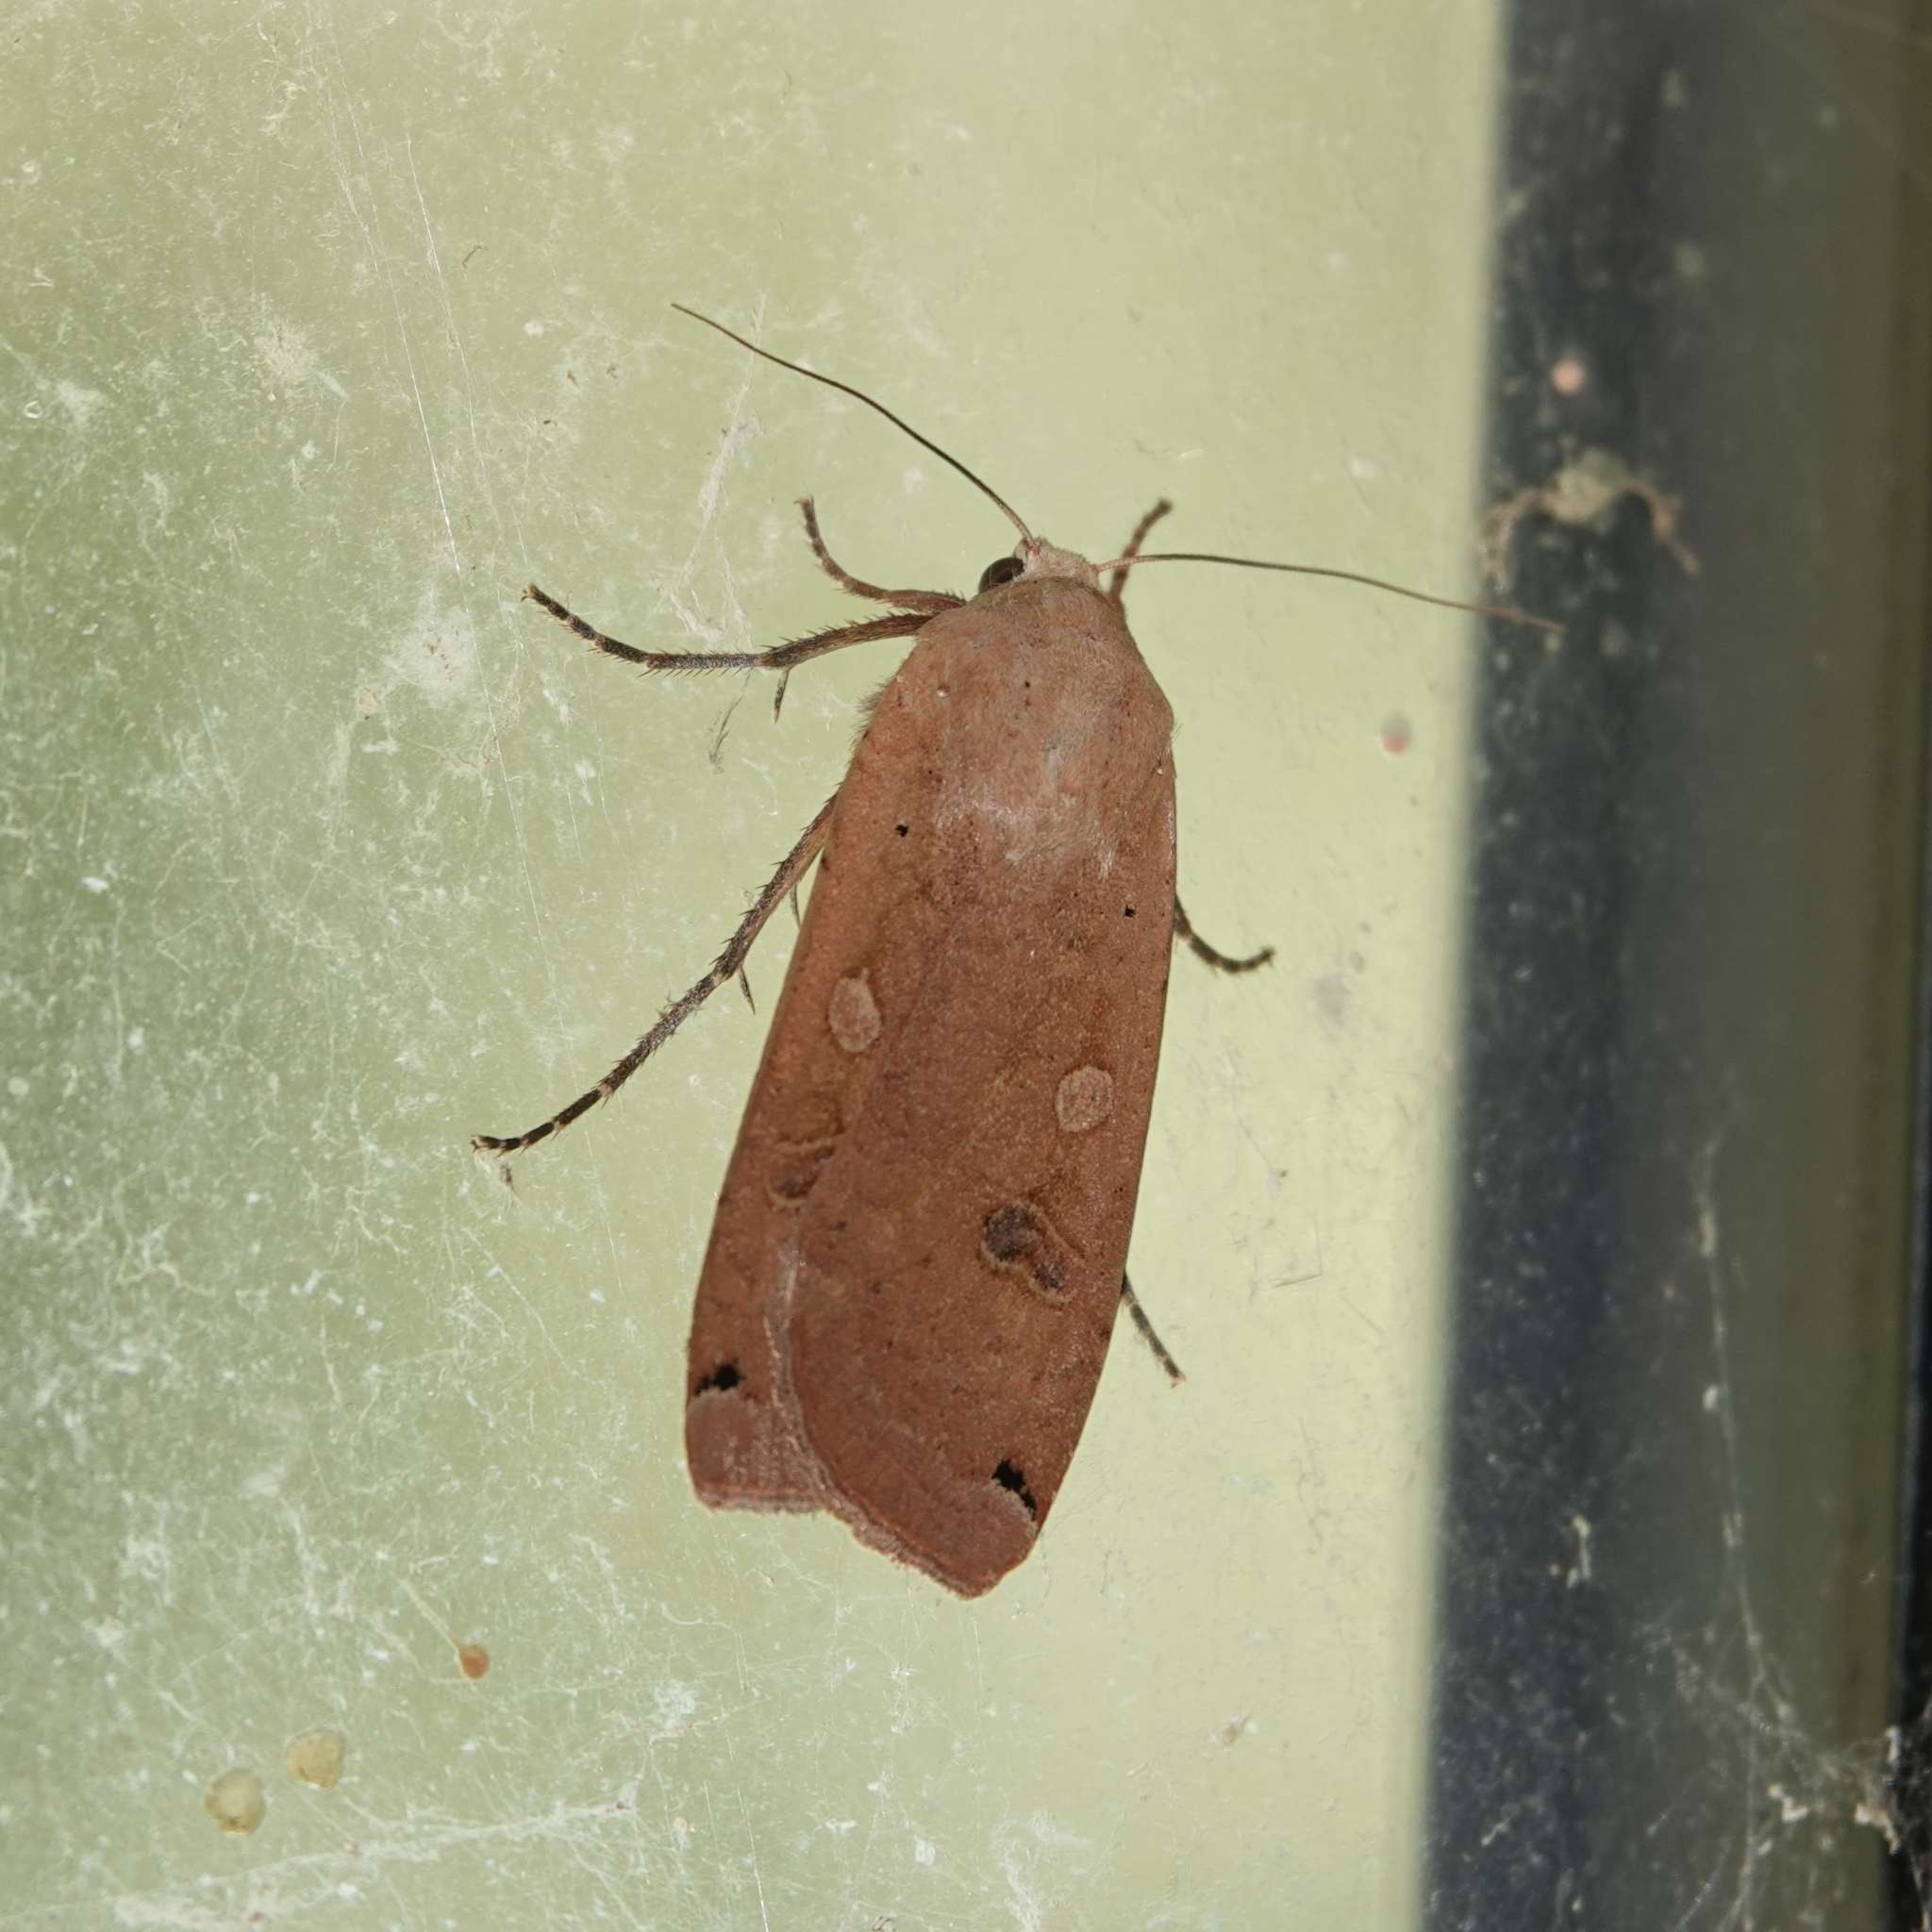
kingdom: Animalia
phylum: Arthropoda
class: Insecta
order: Lepidoptera
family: Noctuidae
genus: Noctua
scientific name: Noctua pronuba
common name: Large yellow underwing
